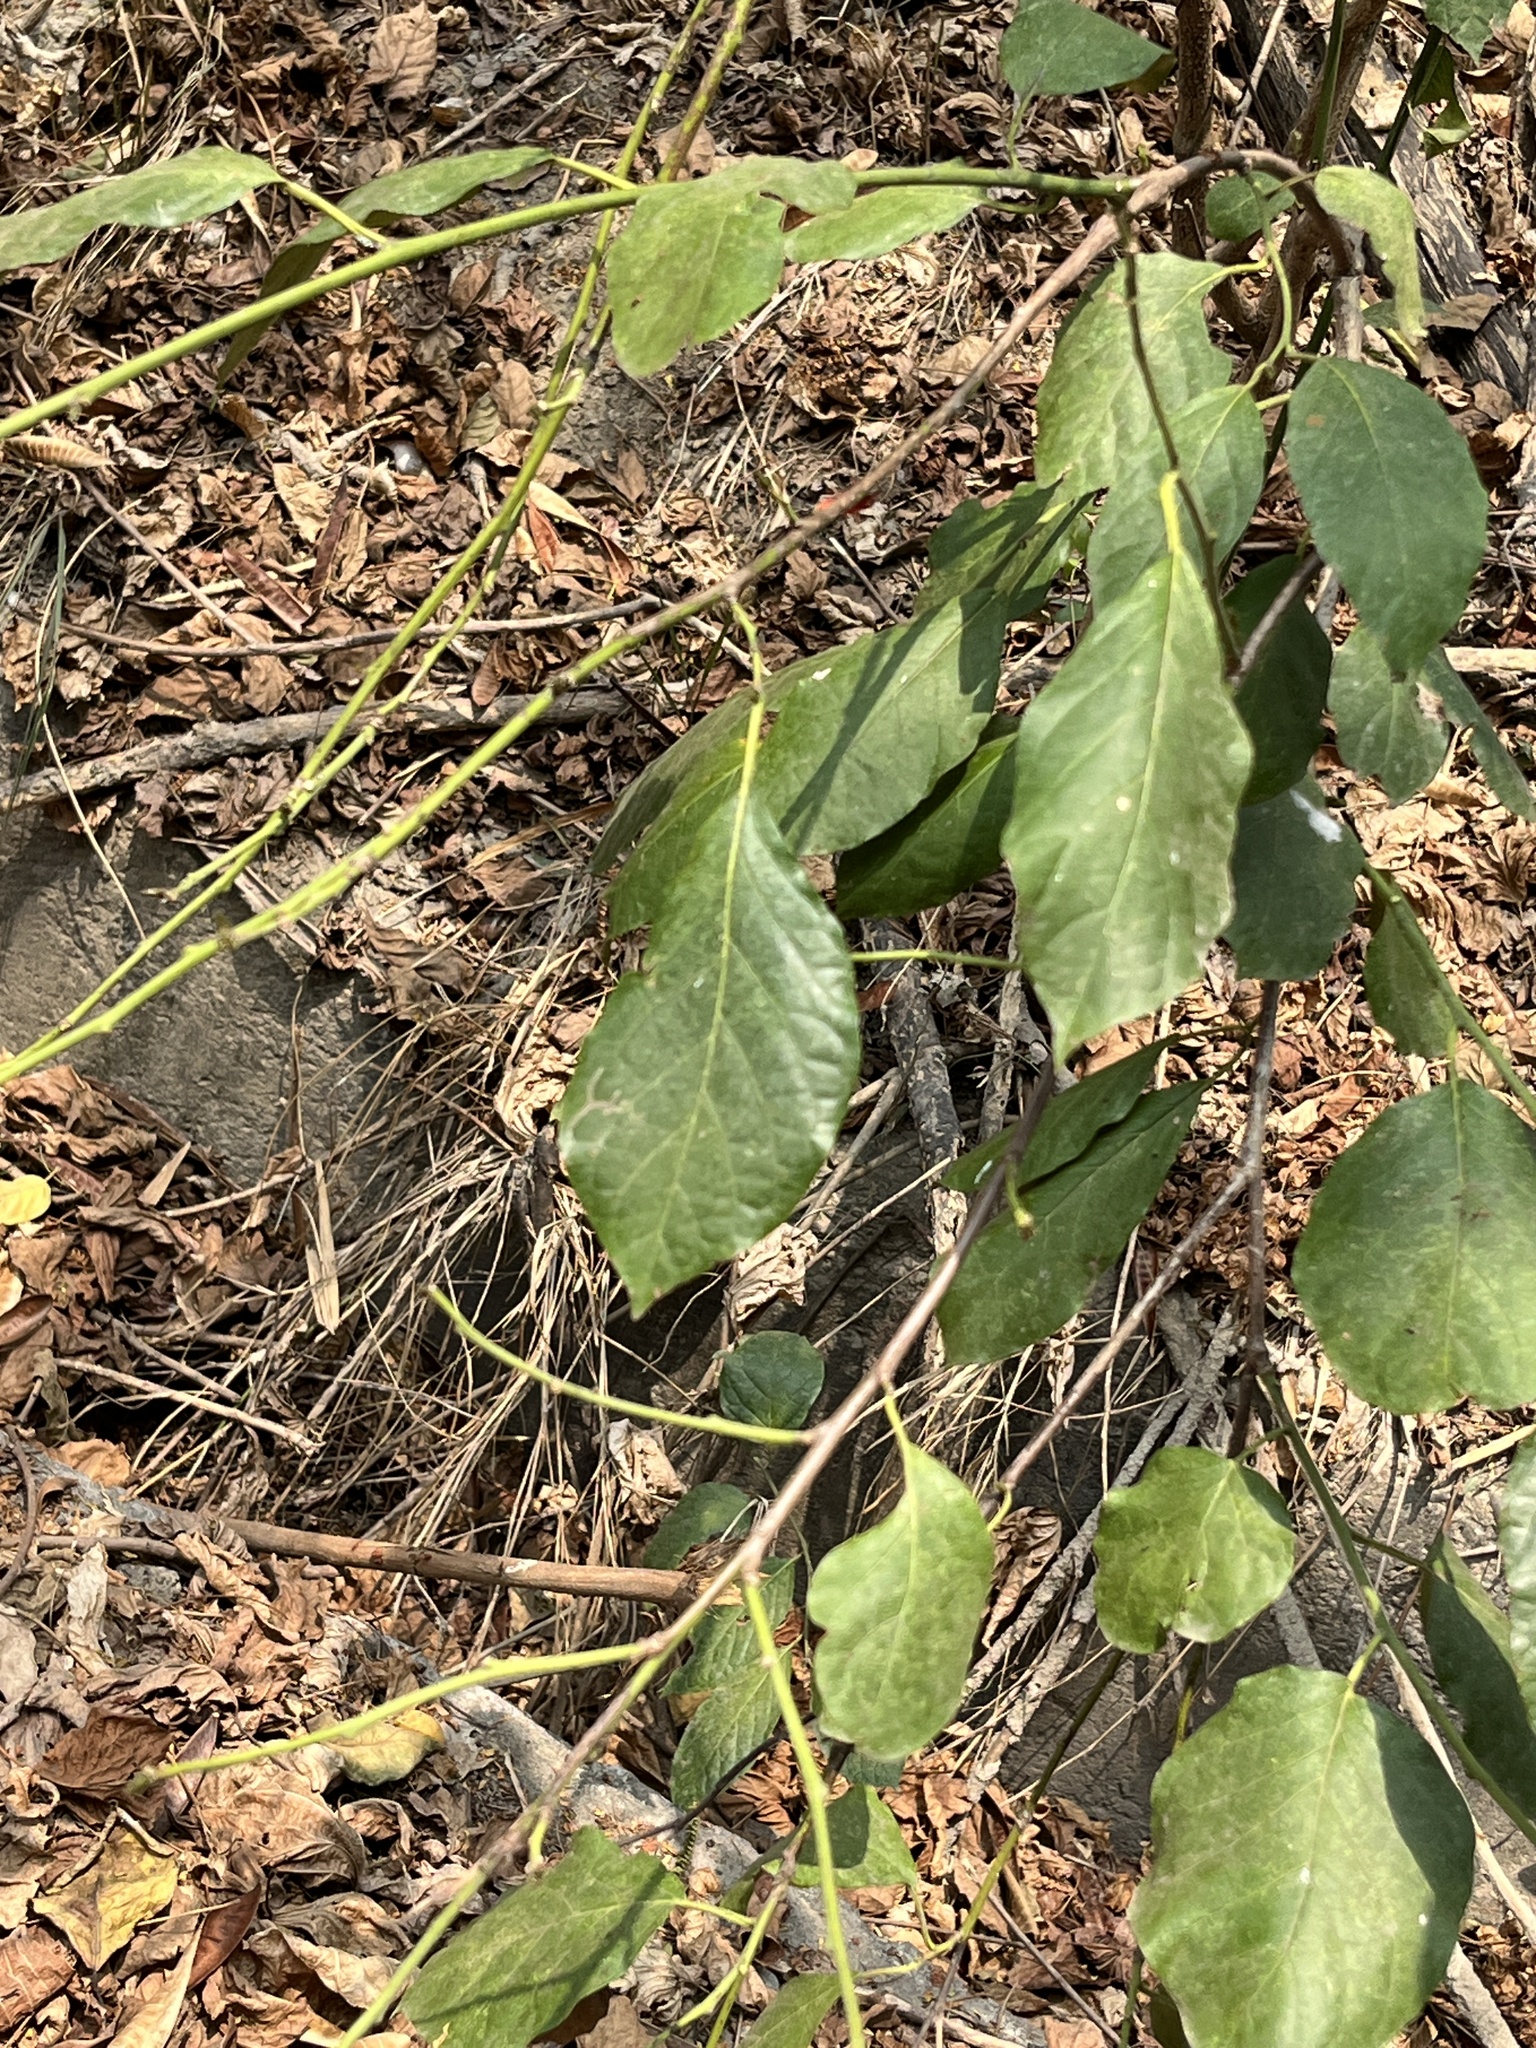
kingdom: Plantae
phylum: Tracheophyta
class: Magnoliopsida
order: Boraginales
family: Ehretiaceae
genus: Ehretia
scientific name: Ehretia resinosa
